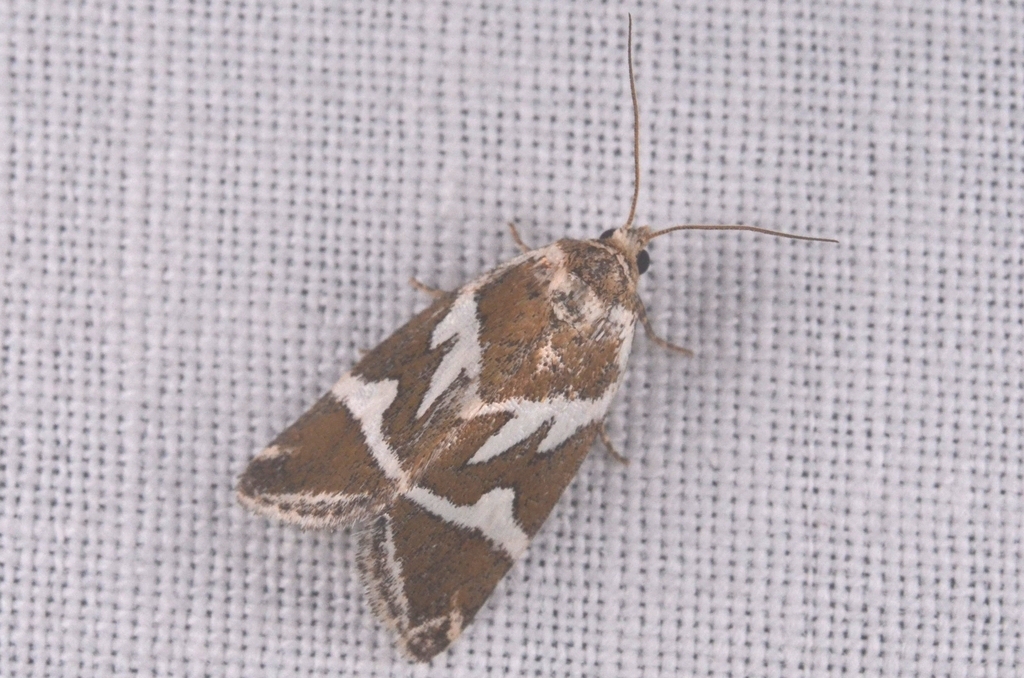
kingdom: Animalia
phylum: Arthropoda
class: Insecta
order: Lepidoptera
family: Noctuidae
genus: Deltote
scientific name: Deltote bankiana
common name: Silver barred
